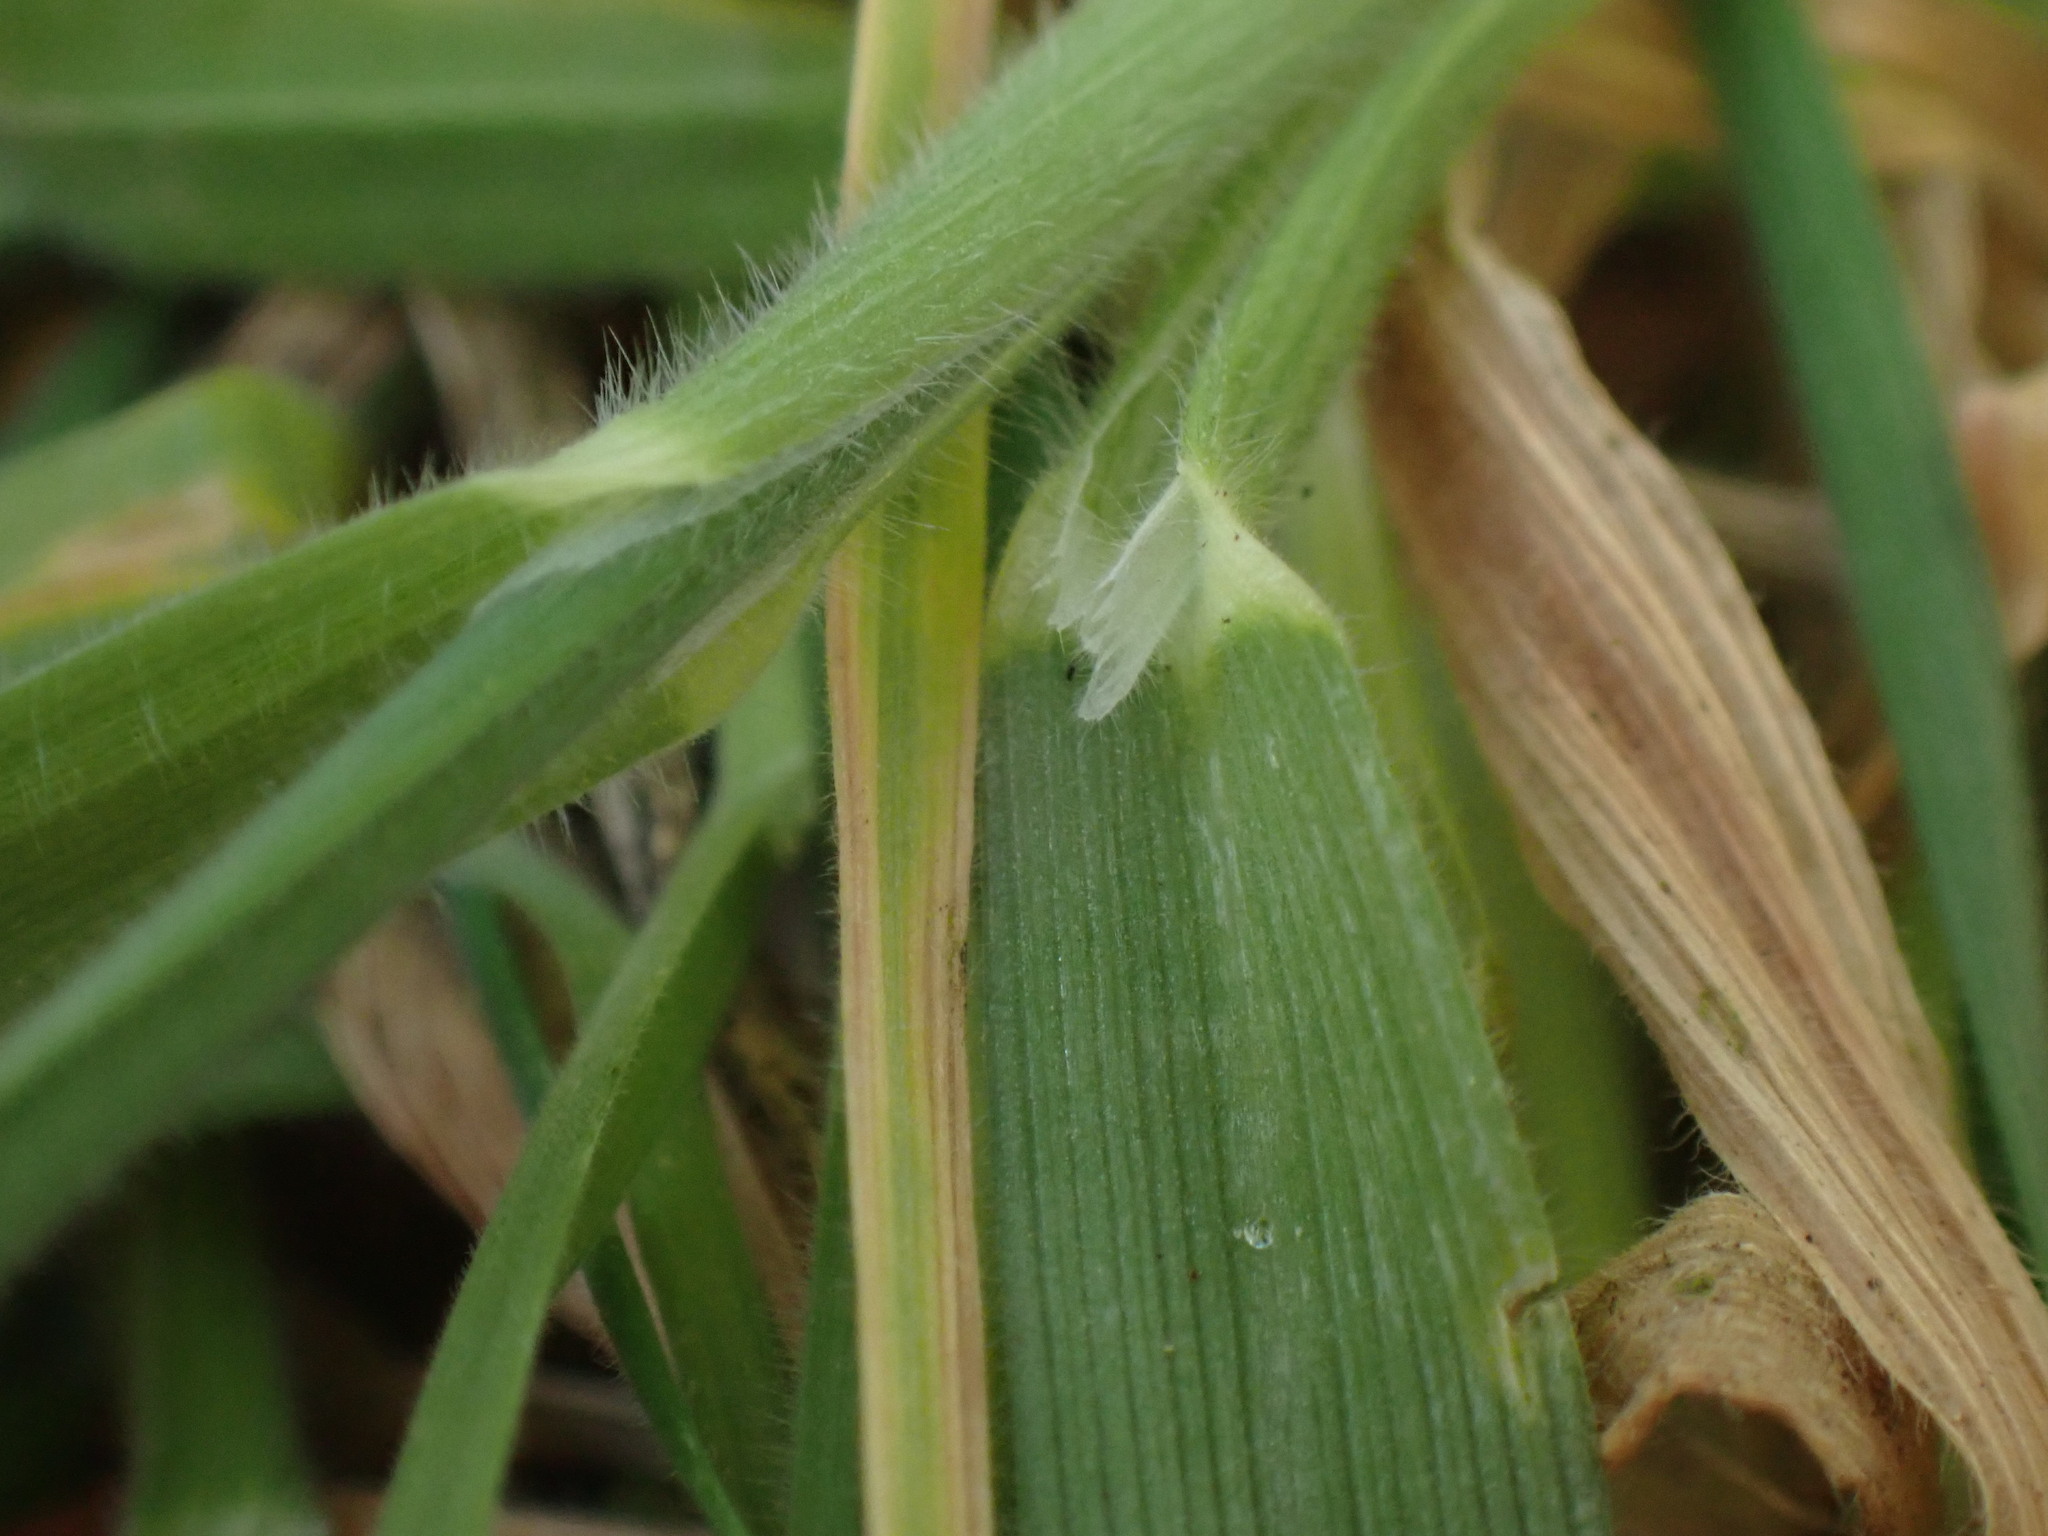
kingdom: Plantae
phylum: Tracheophyta
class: Liliopsida
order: Poales
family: Poaceae
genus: Holcus
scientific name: Holcus lanatus
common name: Yorkshire-fog
